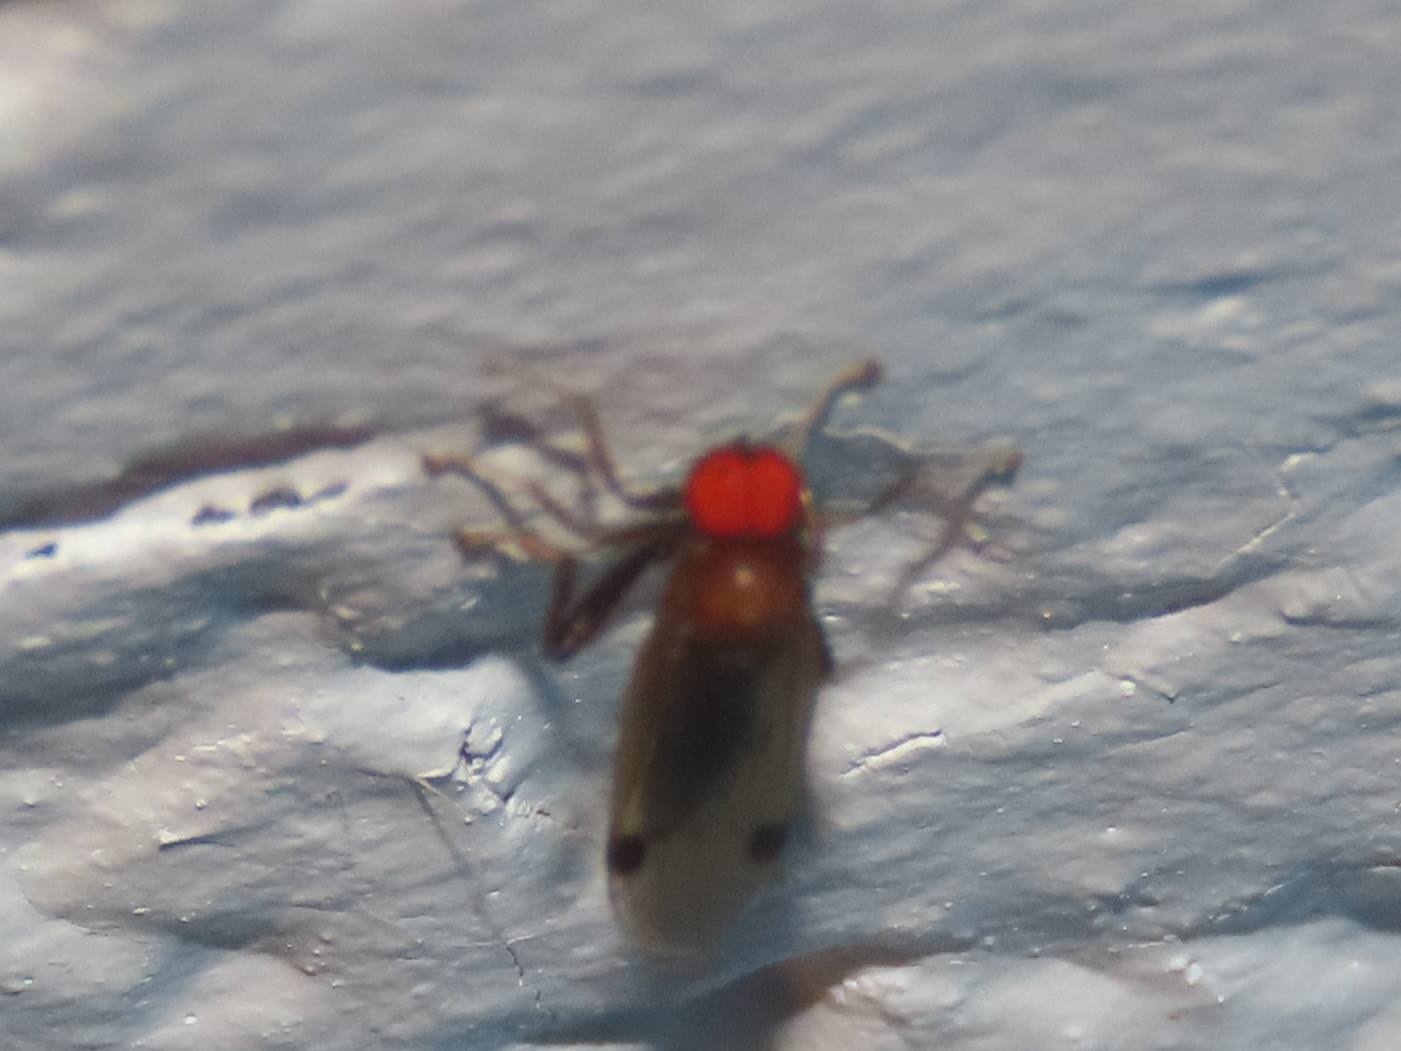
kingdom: Animalia
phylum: Arthropoda
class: Insecta
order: Diptera
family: Hybotidae
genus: Syneches
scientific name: Syneches rufus
